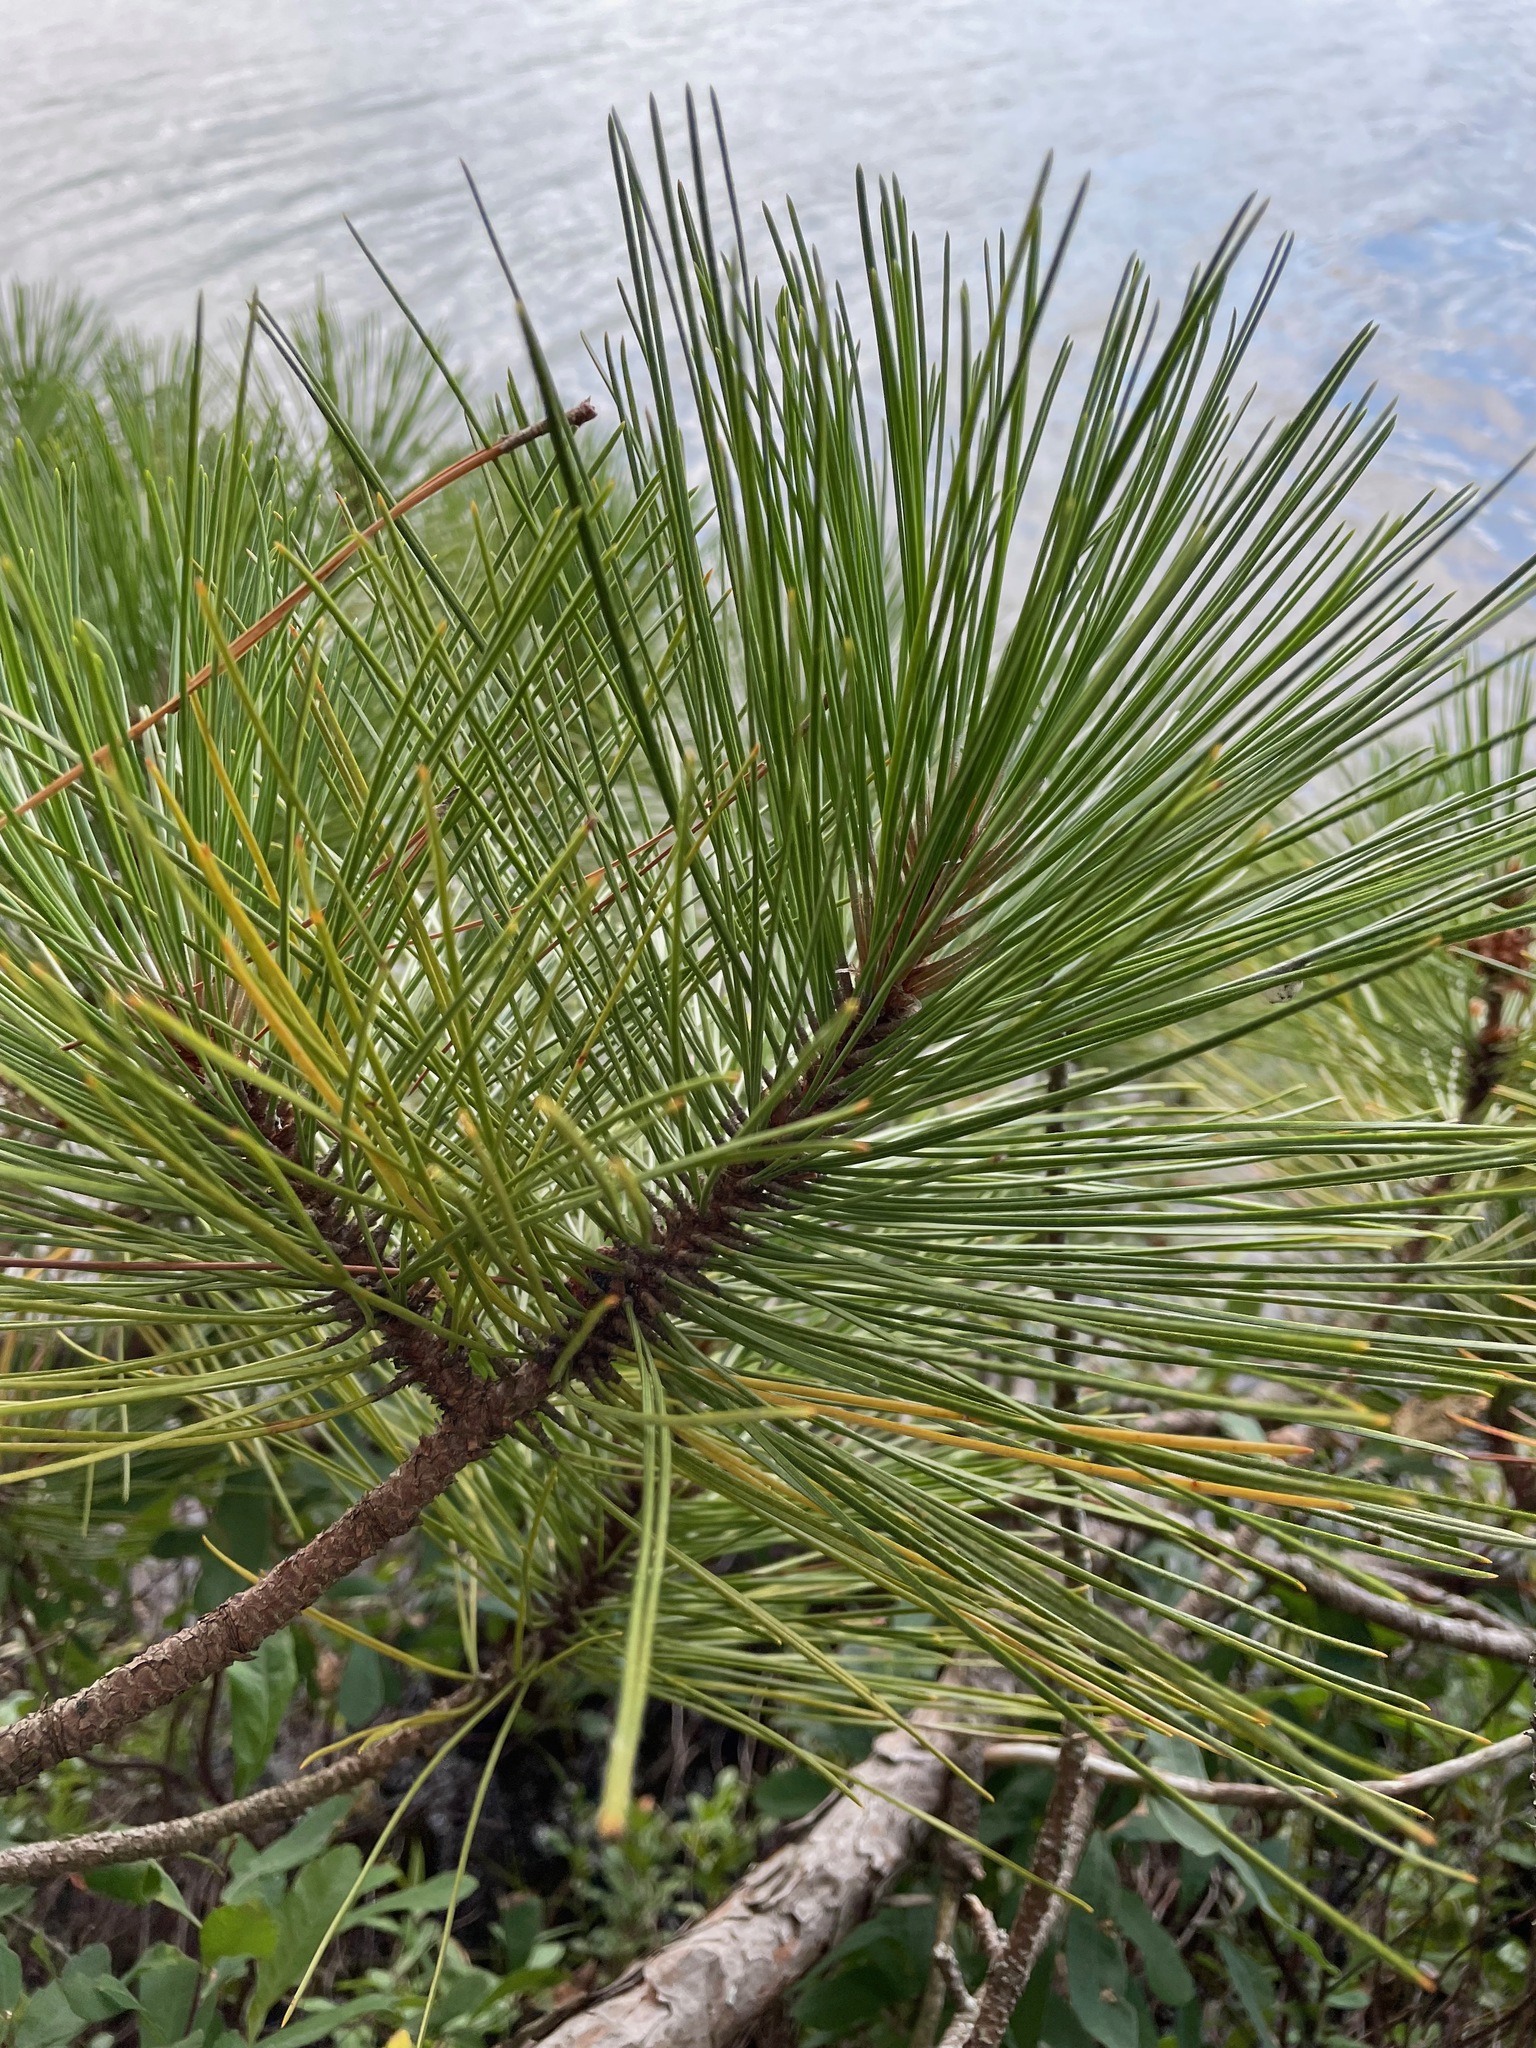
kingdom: Plantae
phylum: Tracheophyta
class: Pinopsida
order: Pinales
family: Pinaceae
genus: Pinus
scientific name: Pinus resinosa
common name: Norway pine
